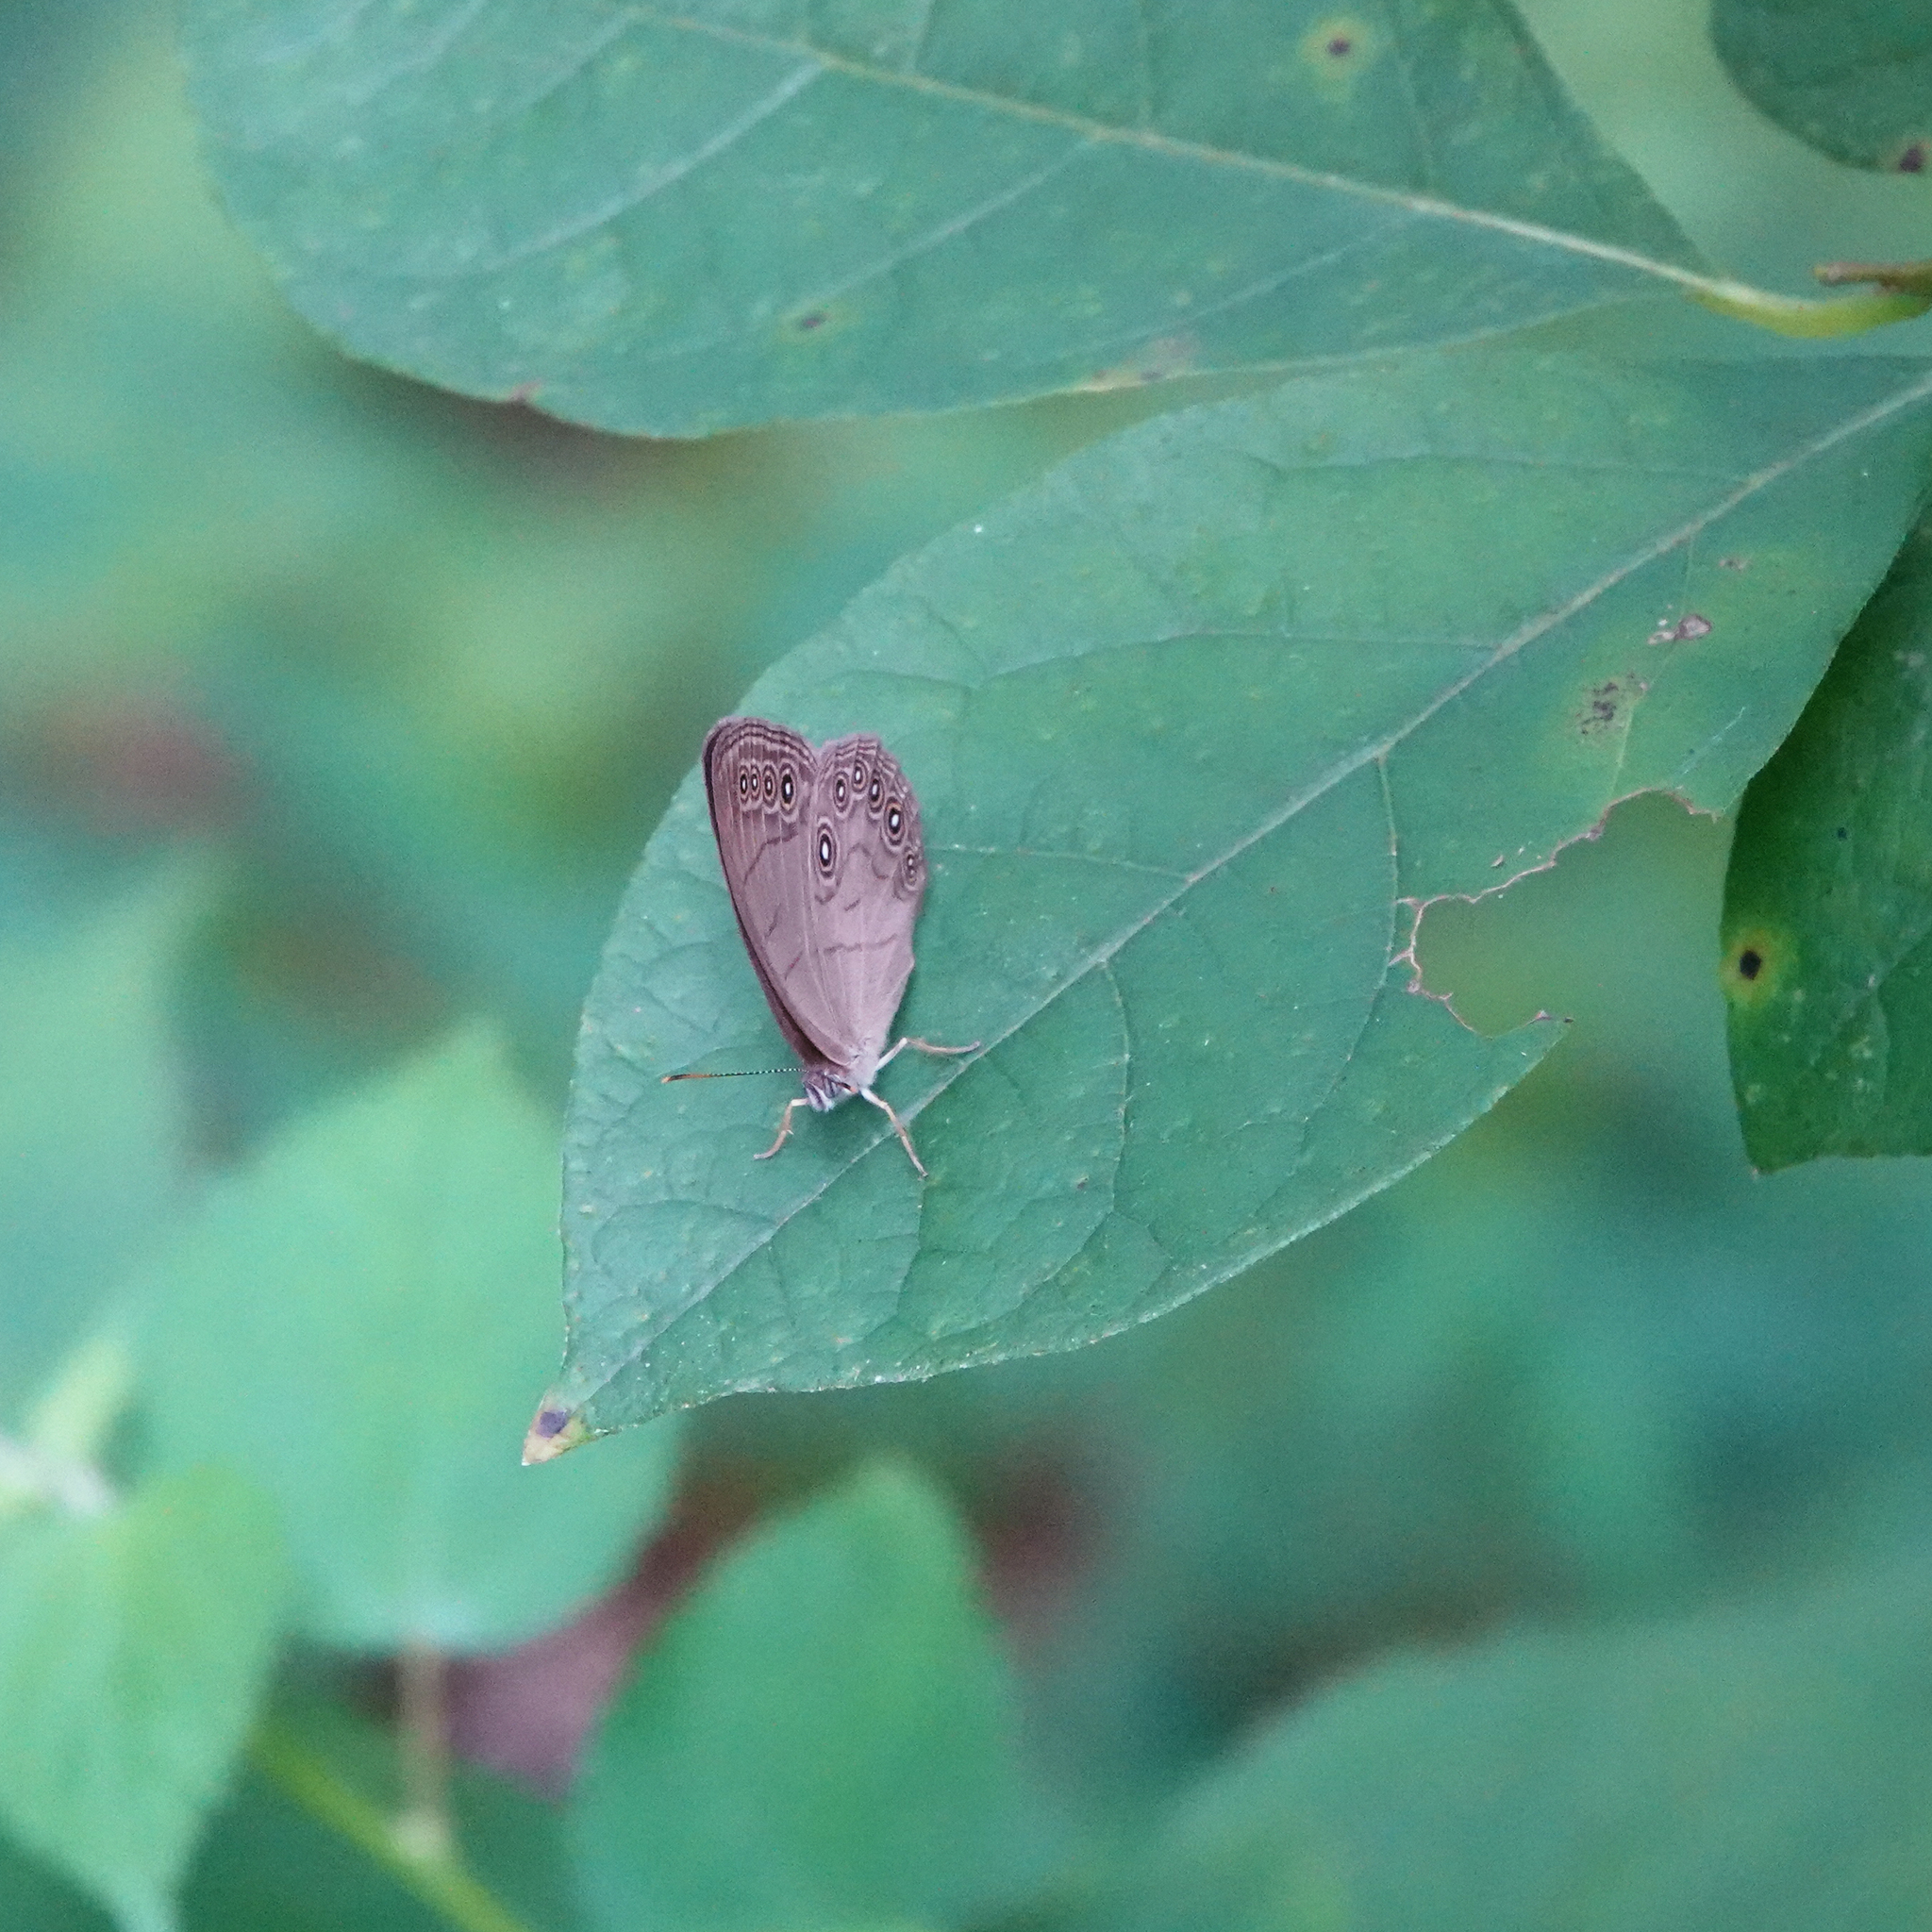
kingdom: Animalia
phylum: Arthropoda
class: Insecta
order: Lepidoptera
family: Nymphalidae
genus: Lethe
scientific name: Lethe eurydice
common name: Eyed brown
